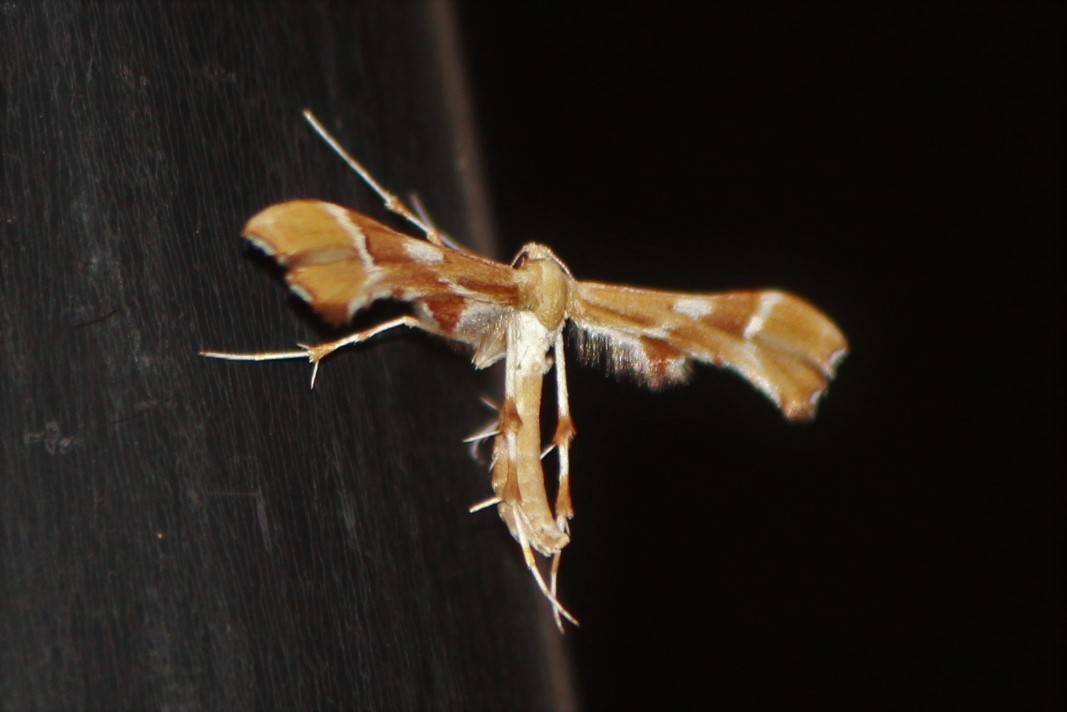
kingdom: Animalia
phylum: Arthropoda
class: Insecta
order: Lepidoptera
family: Pterophoridae
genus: Cnaemidophorus
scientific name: Cnaemidophorus rhododactyla
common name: Rose plume
